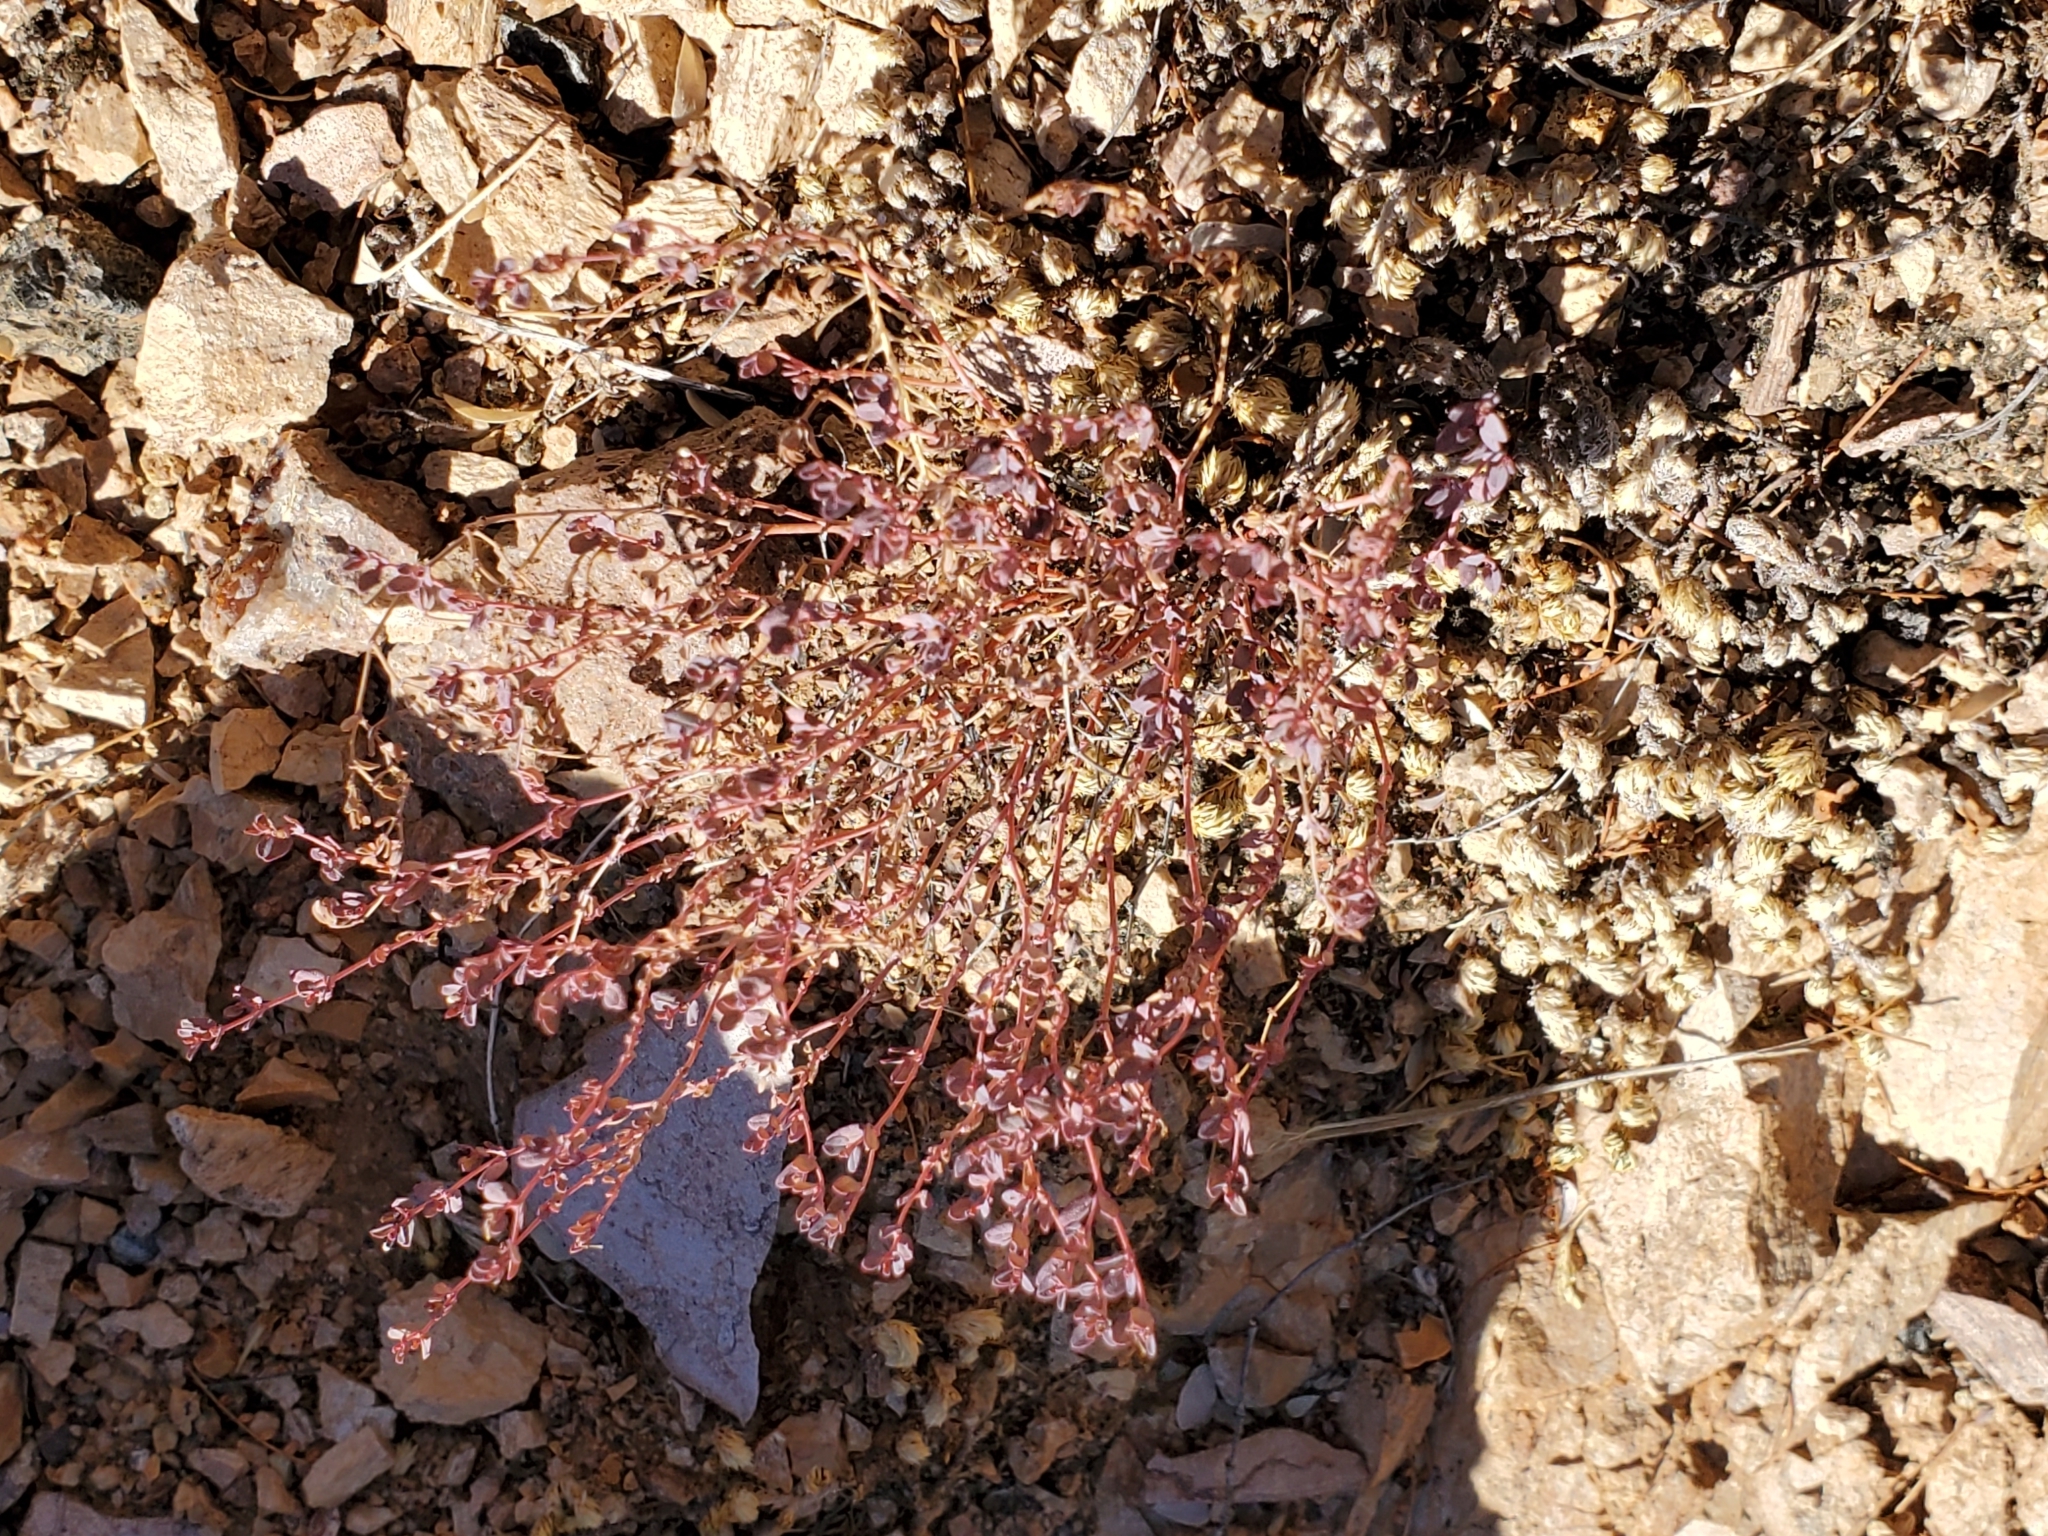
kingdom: Plantae
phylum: Tracheophyta
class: Magnoliopsida
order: Malpighiales
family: Euphorbiaceae
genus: Euphorbia
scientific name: Euphorbia polycarpa
